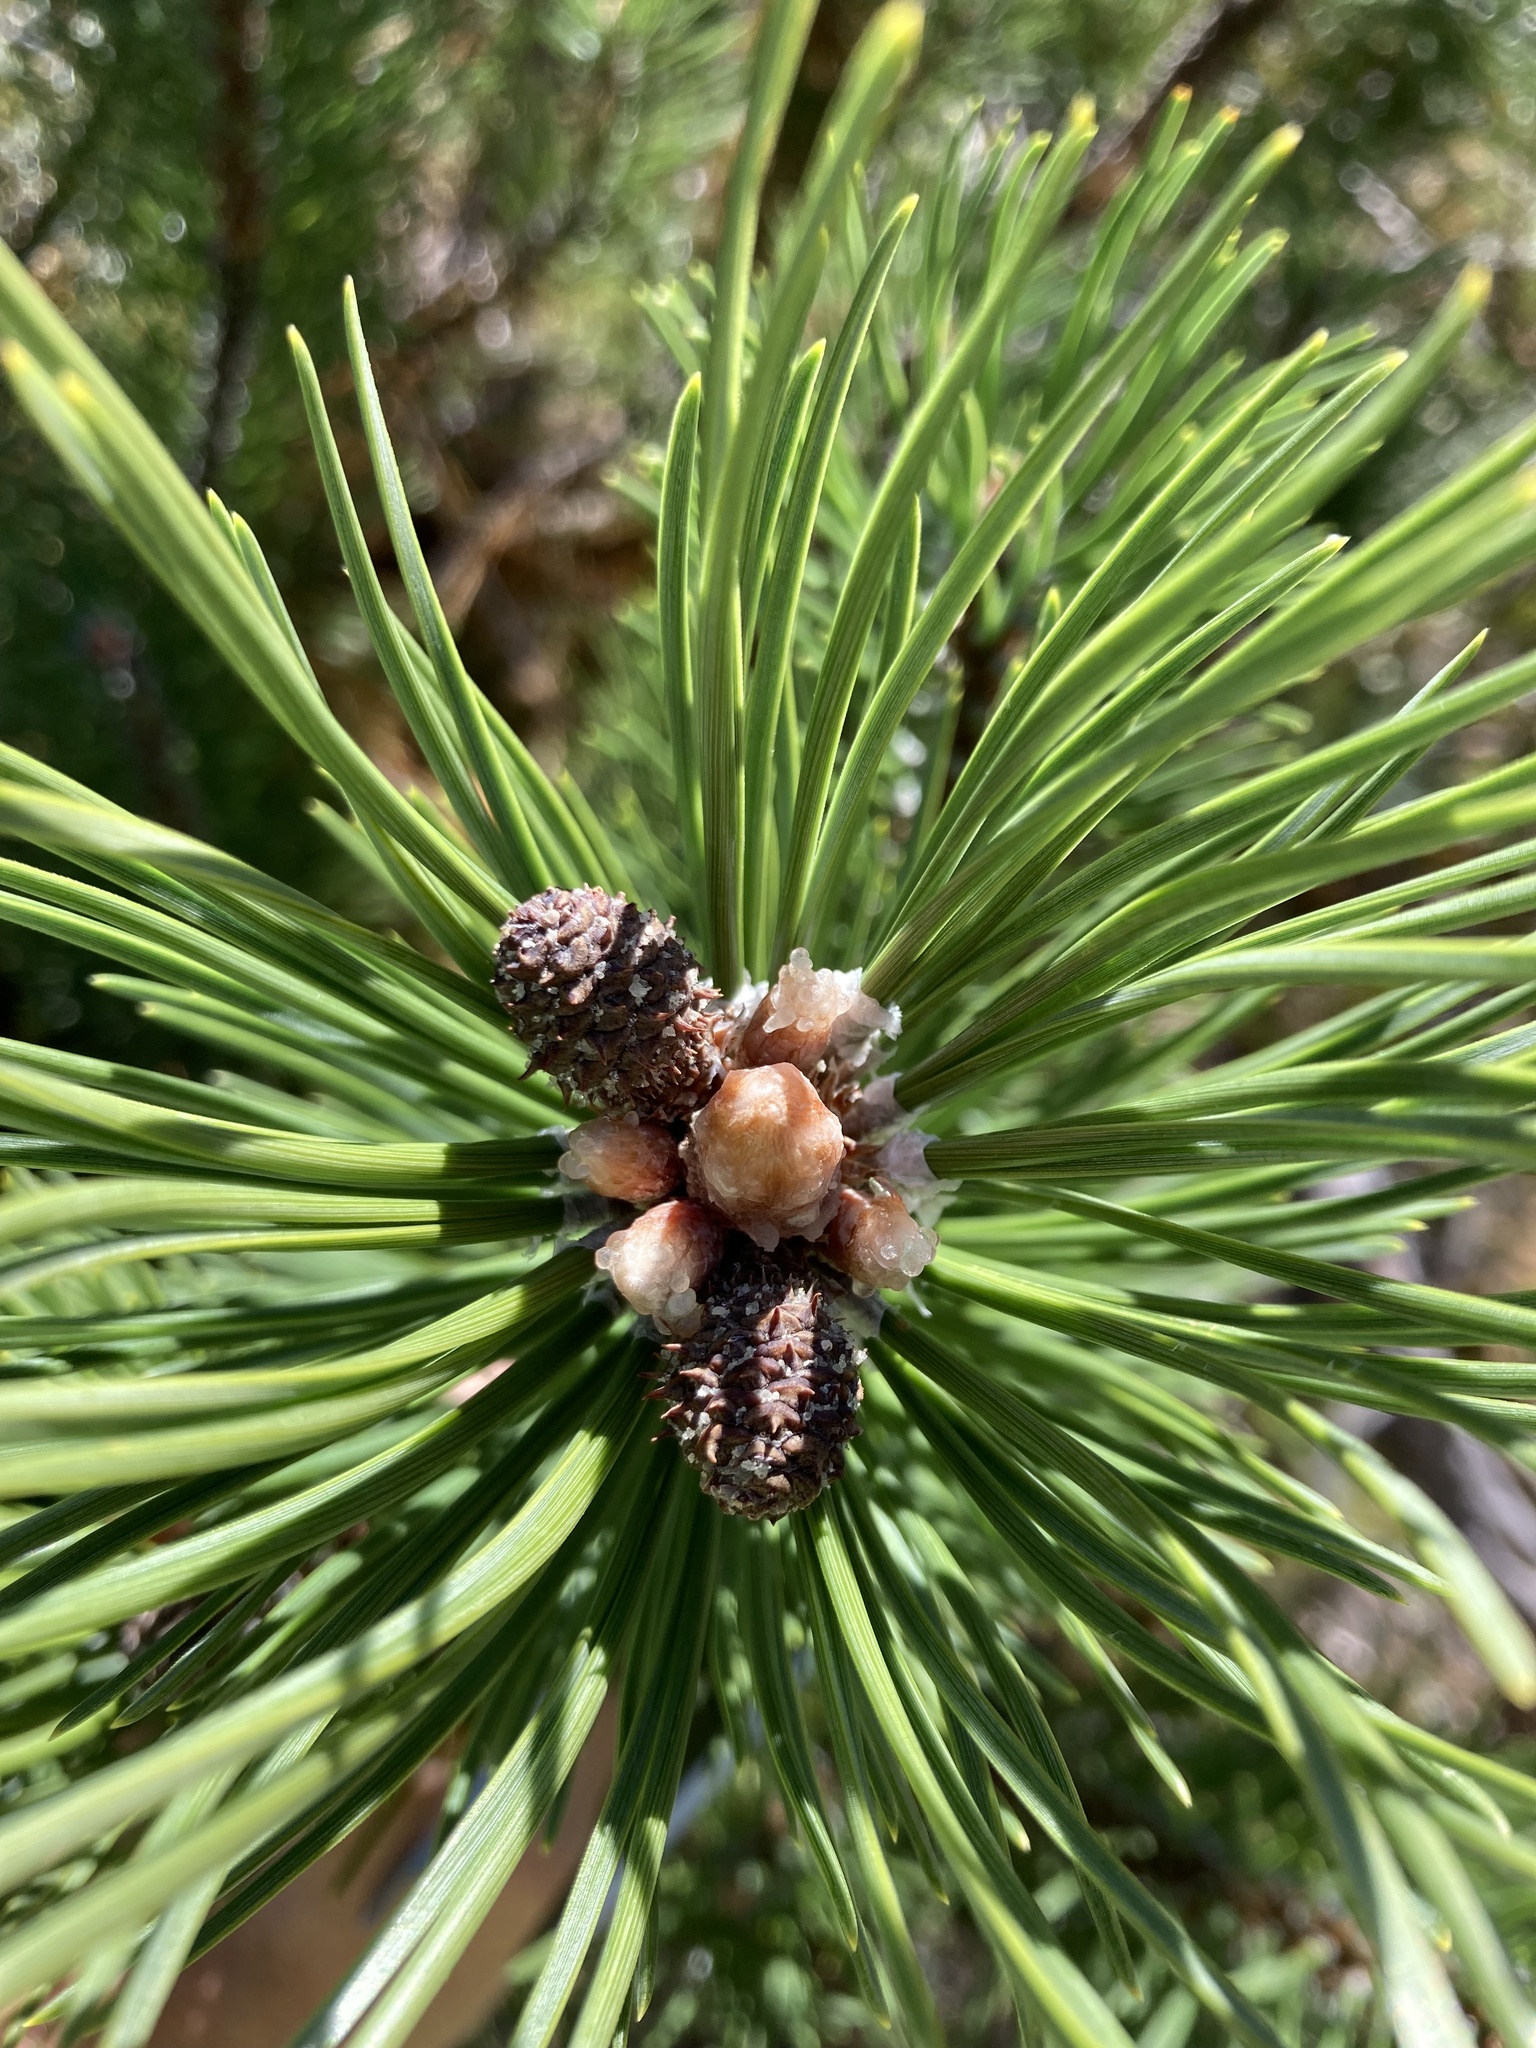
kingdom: Plantae
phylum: Tracheophyta
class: Pinopsida
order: Pinales
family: Pinaceae
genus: Pinus
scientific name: Pinus uncinata
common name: Mountain pine
